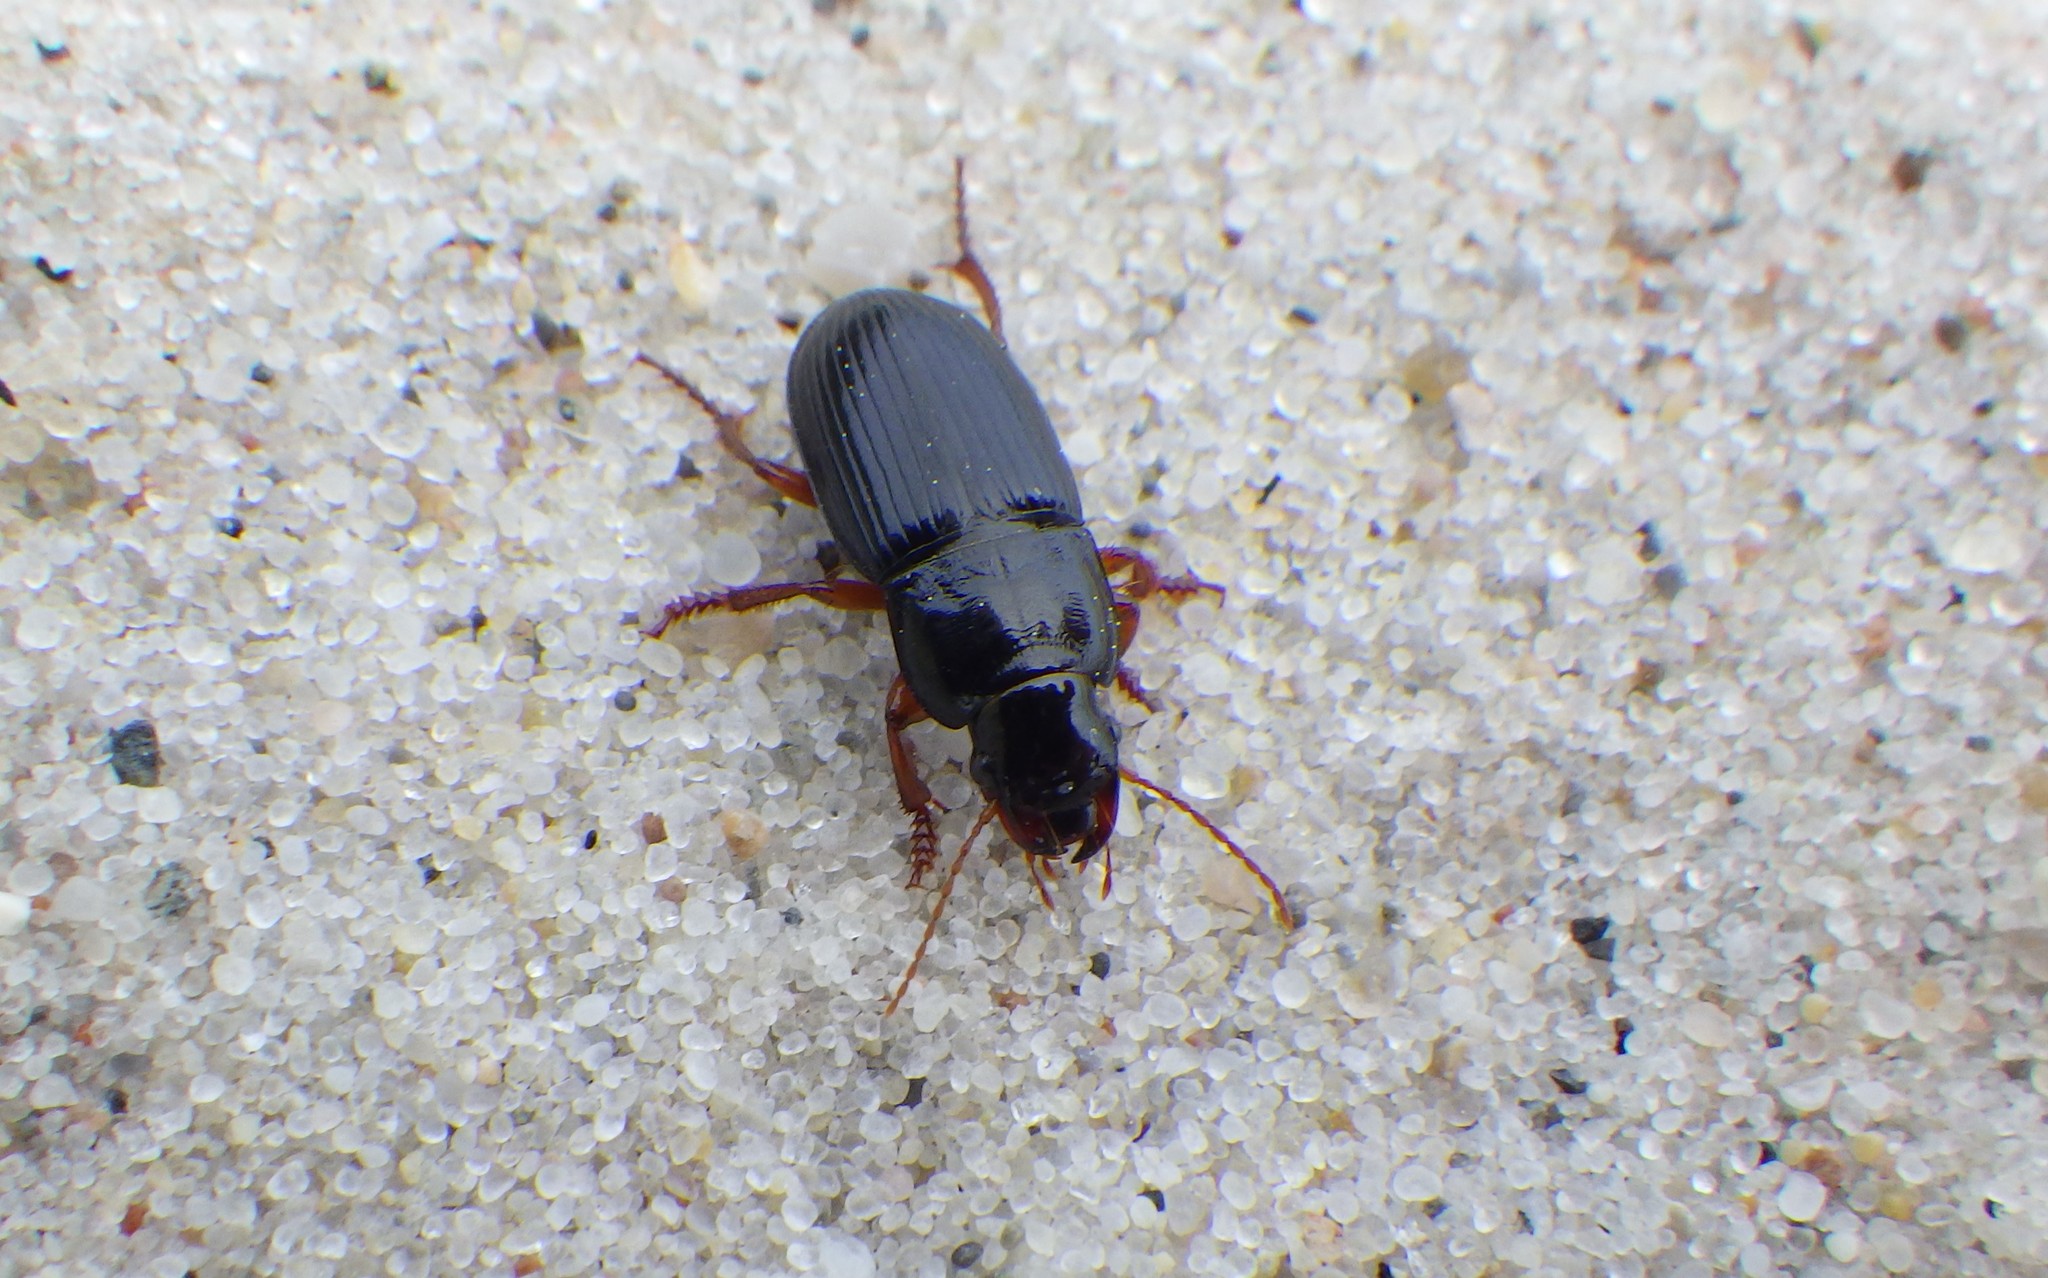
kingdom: Animalia
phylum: Arthropoda
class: Insecta
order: Coleoptera
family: Carabidae
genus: Harpalus
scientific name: Harpalus latus
